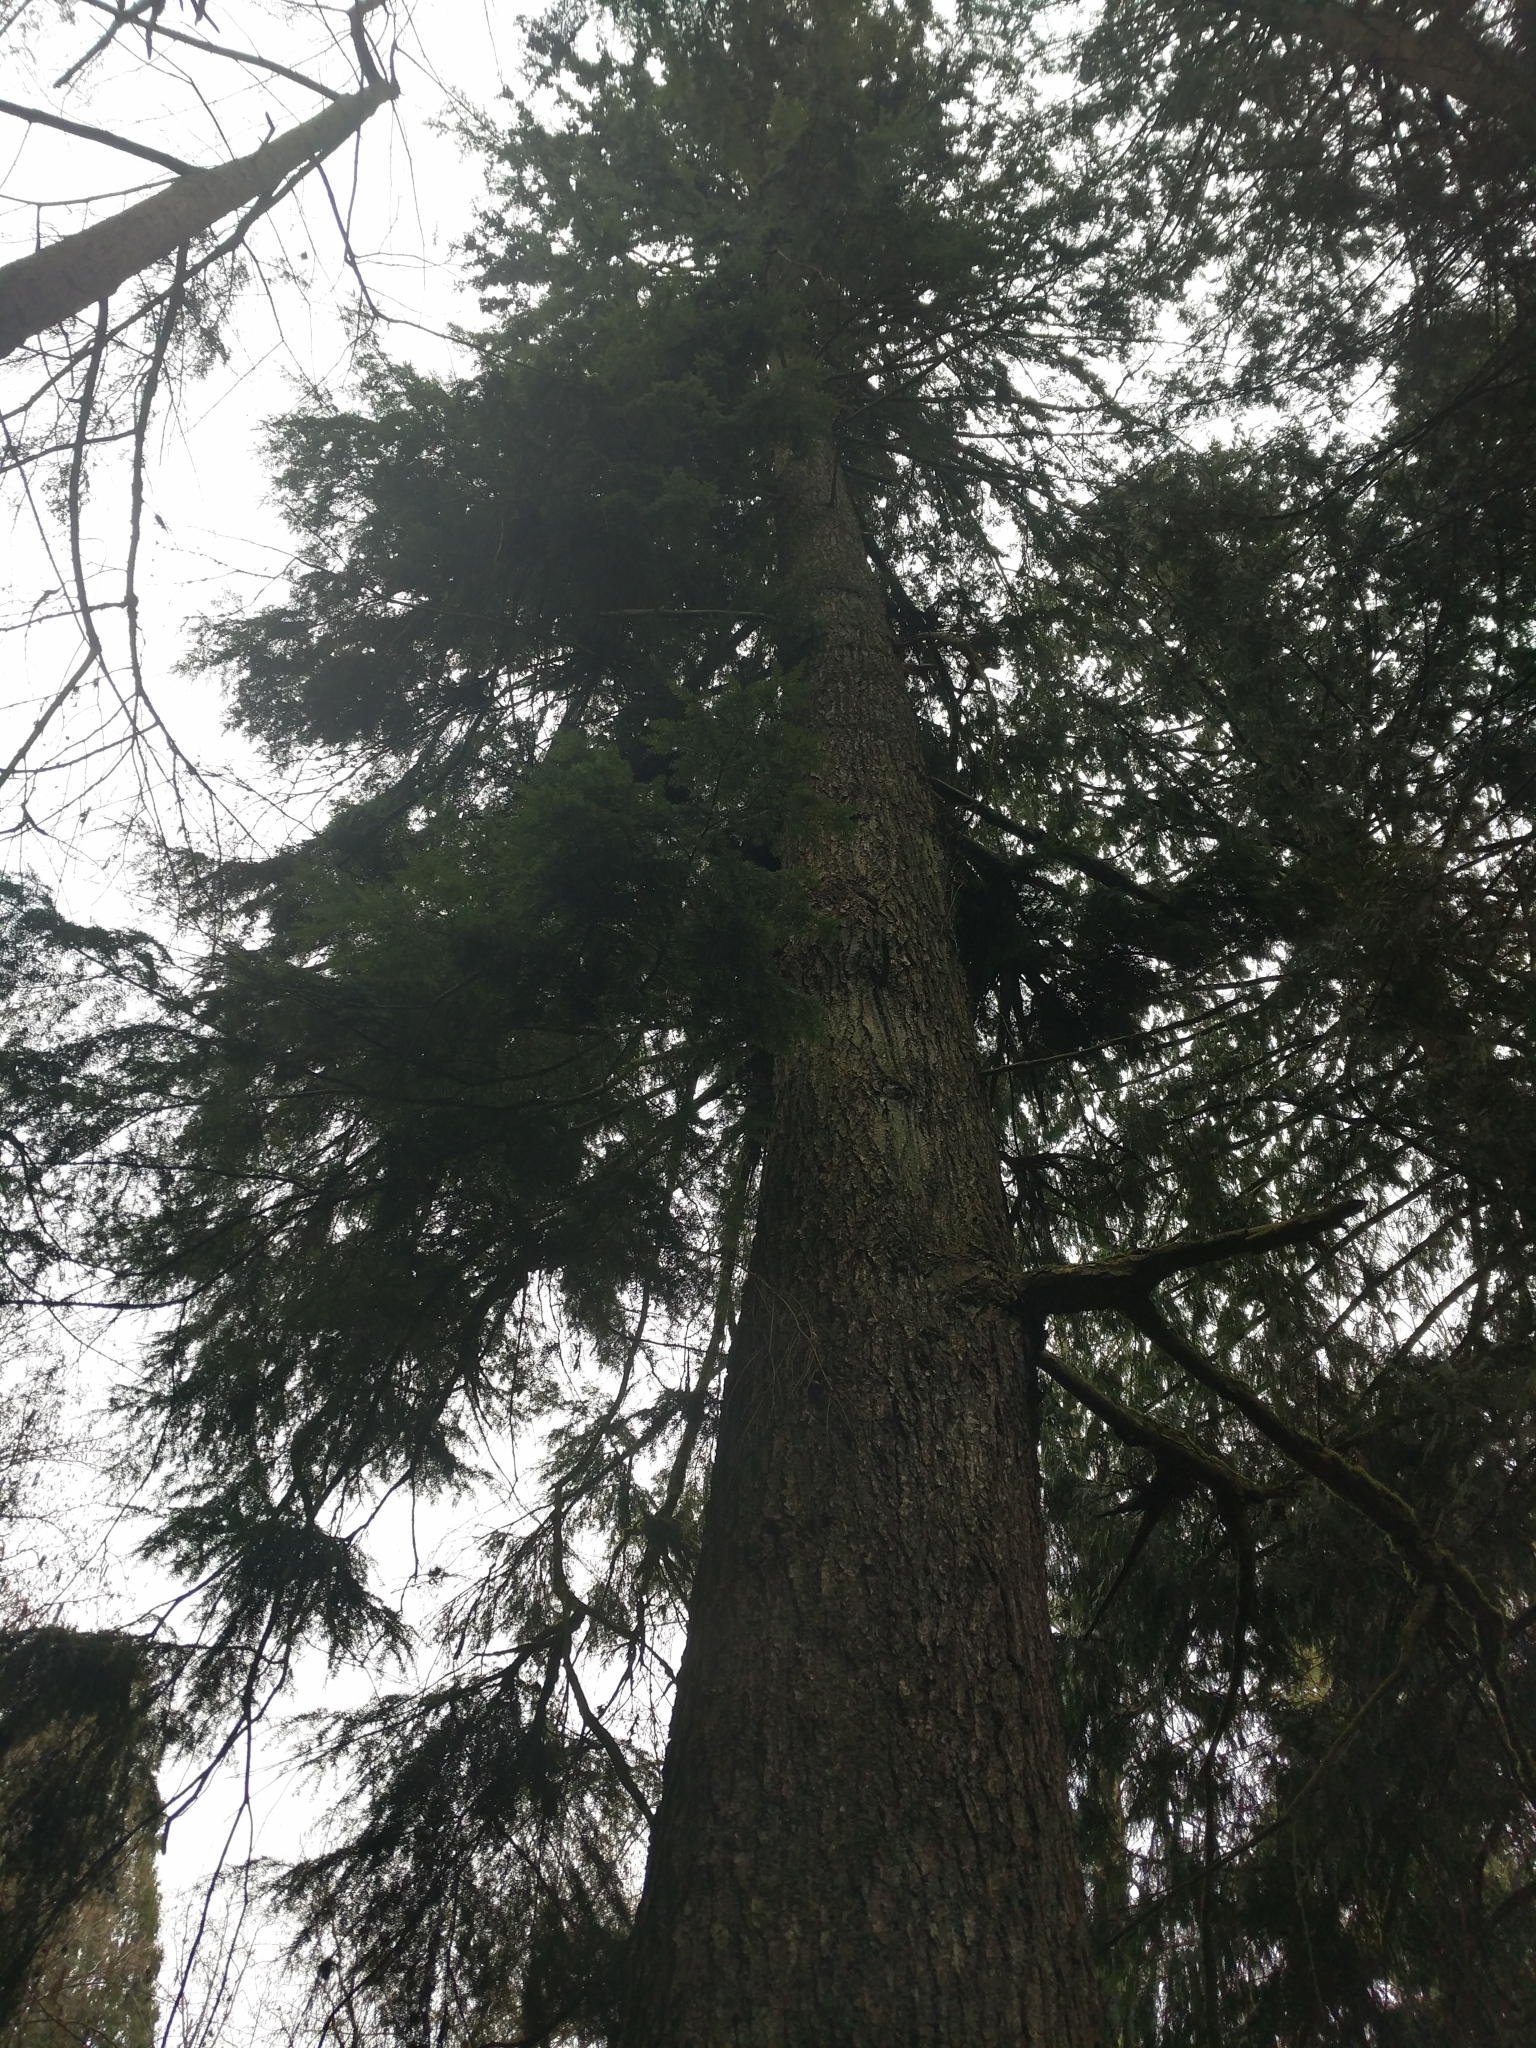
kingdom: Plantae
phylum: Tracheophyta
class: Pinopsida
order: Pinales
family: Pinaceae
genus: Tsuga
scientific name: Tsuga heterophylla
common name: Western hemlock
